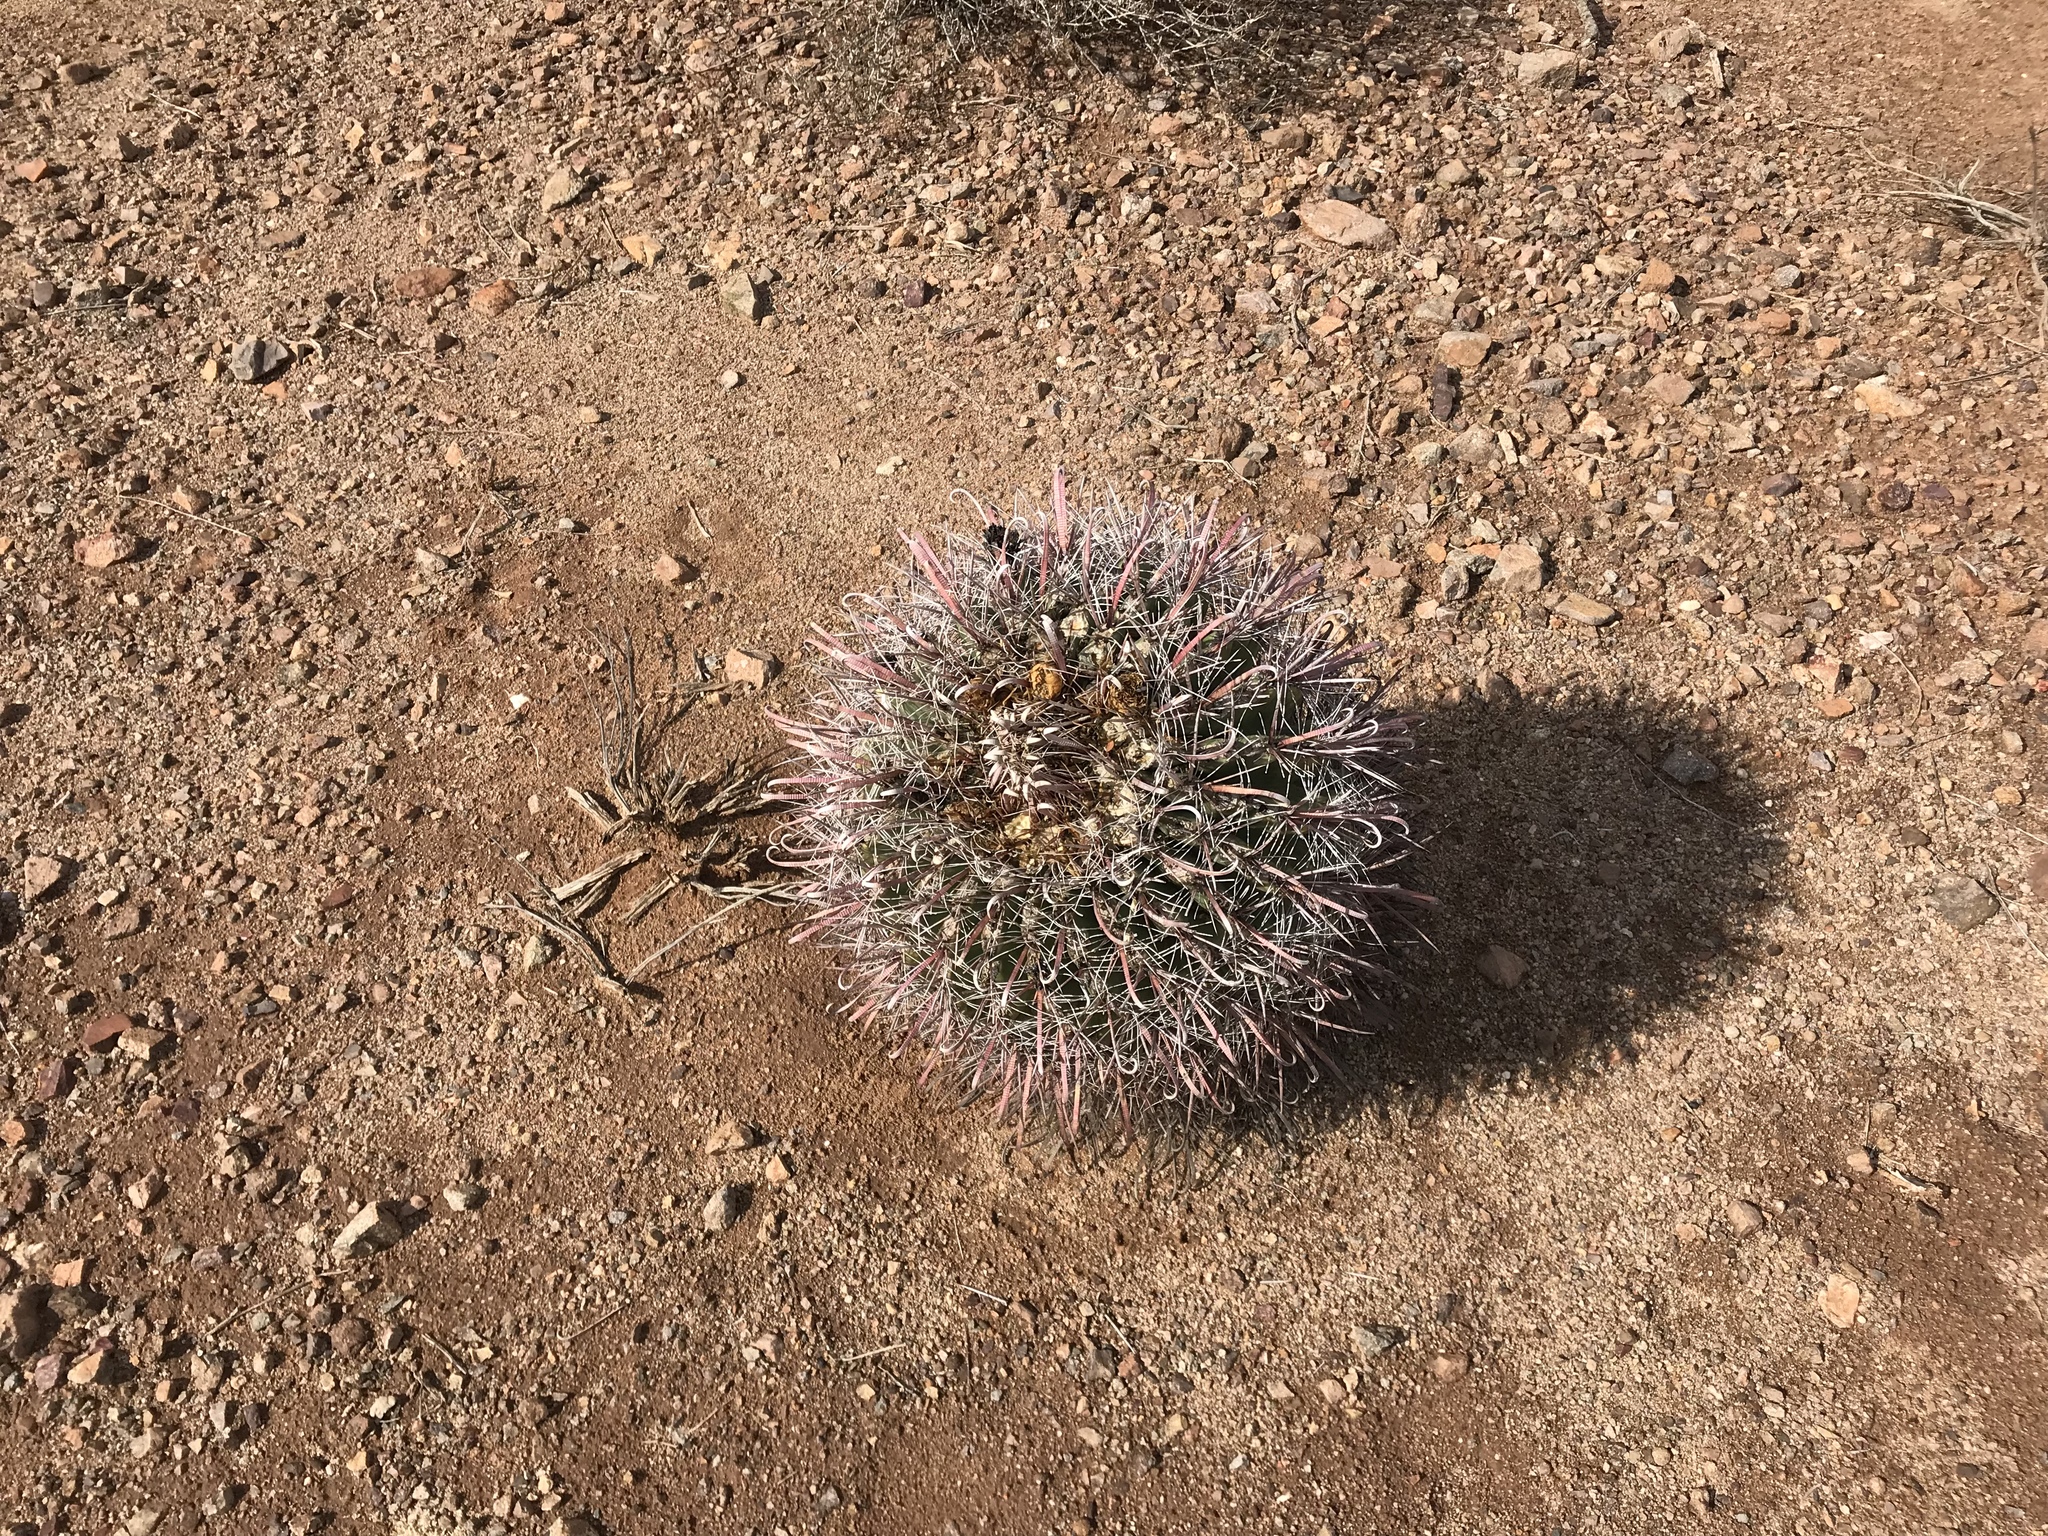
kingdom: Plantae
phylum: Tracheophyta
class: Magnoliopsida
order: Caryophyllales
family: Cactaceae
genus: Ferocactus
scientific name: Ferocactus wislizeni
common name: Candy barrel cactus
